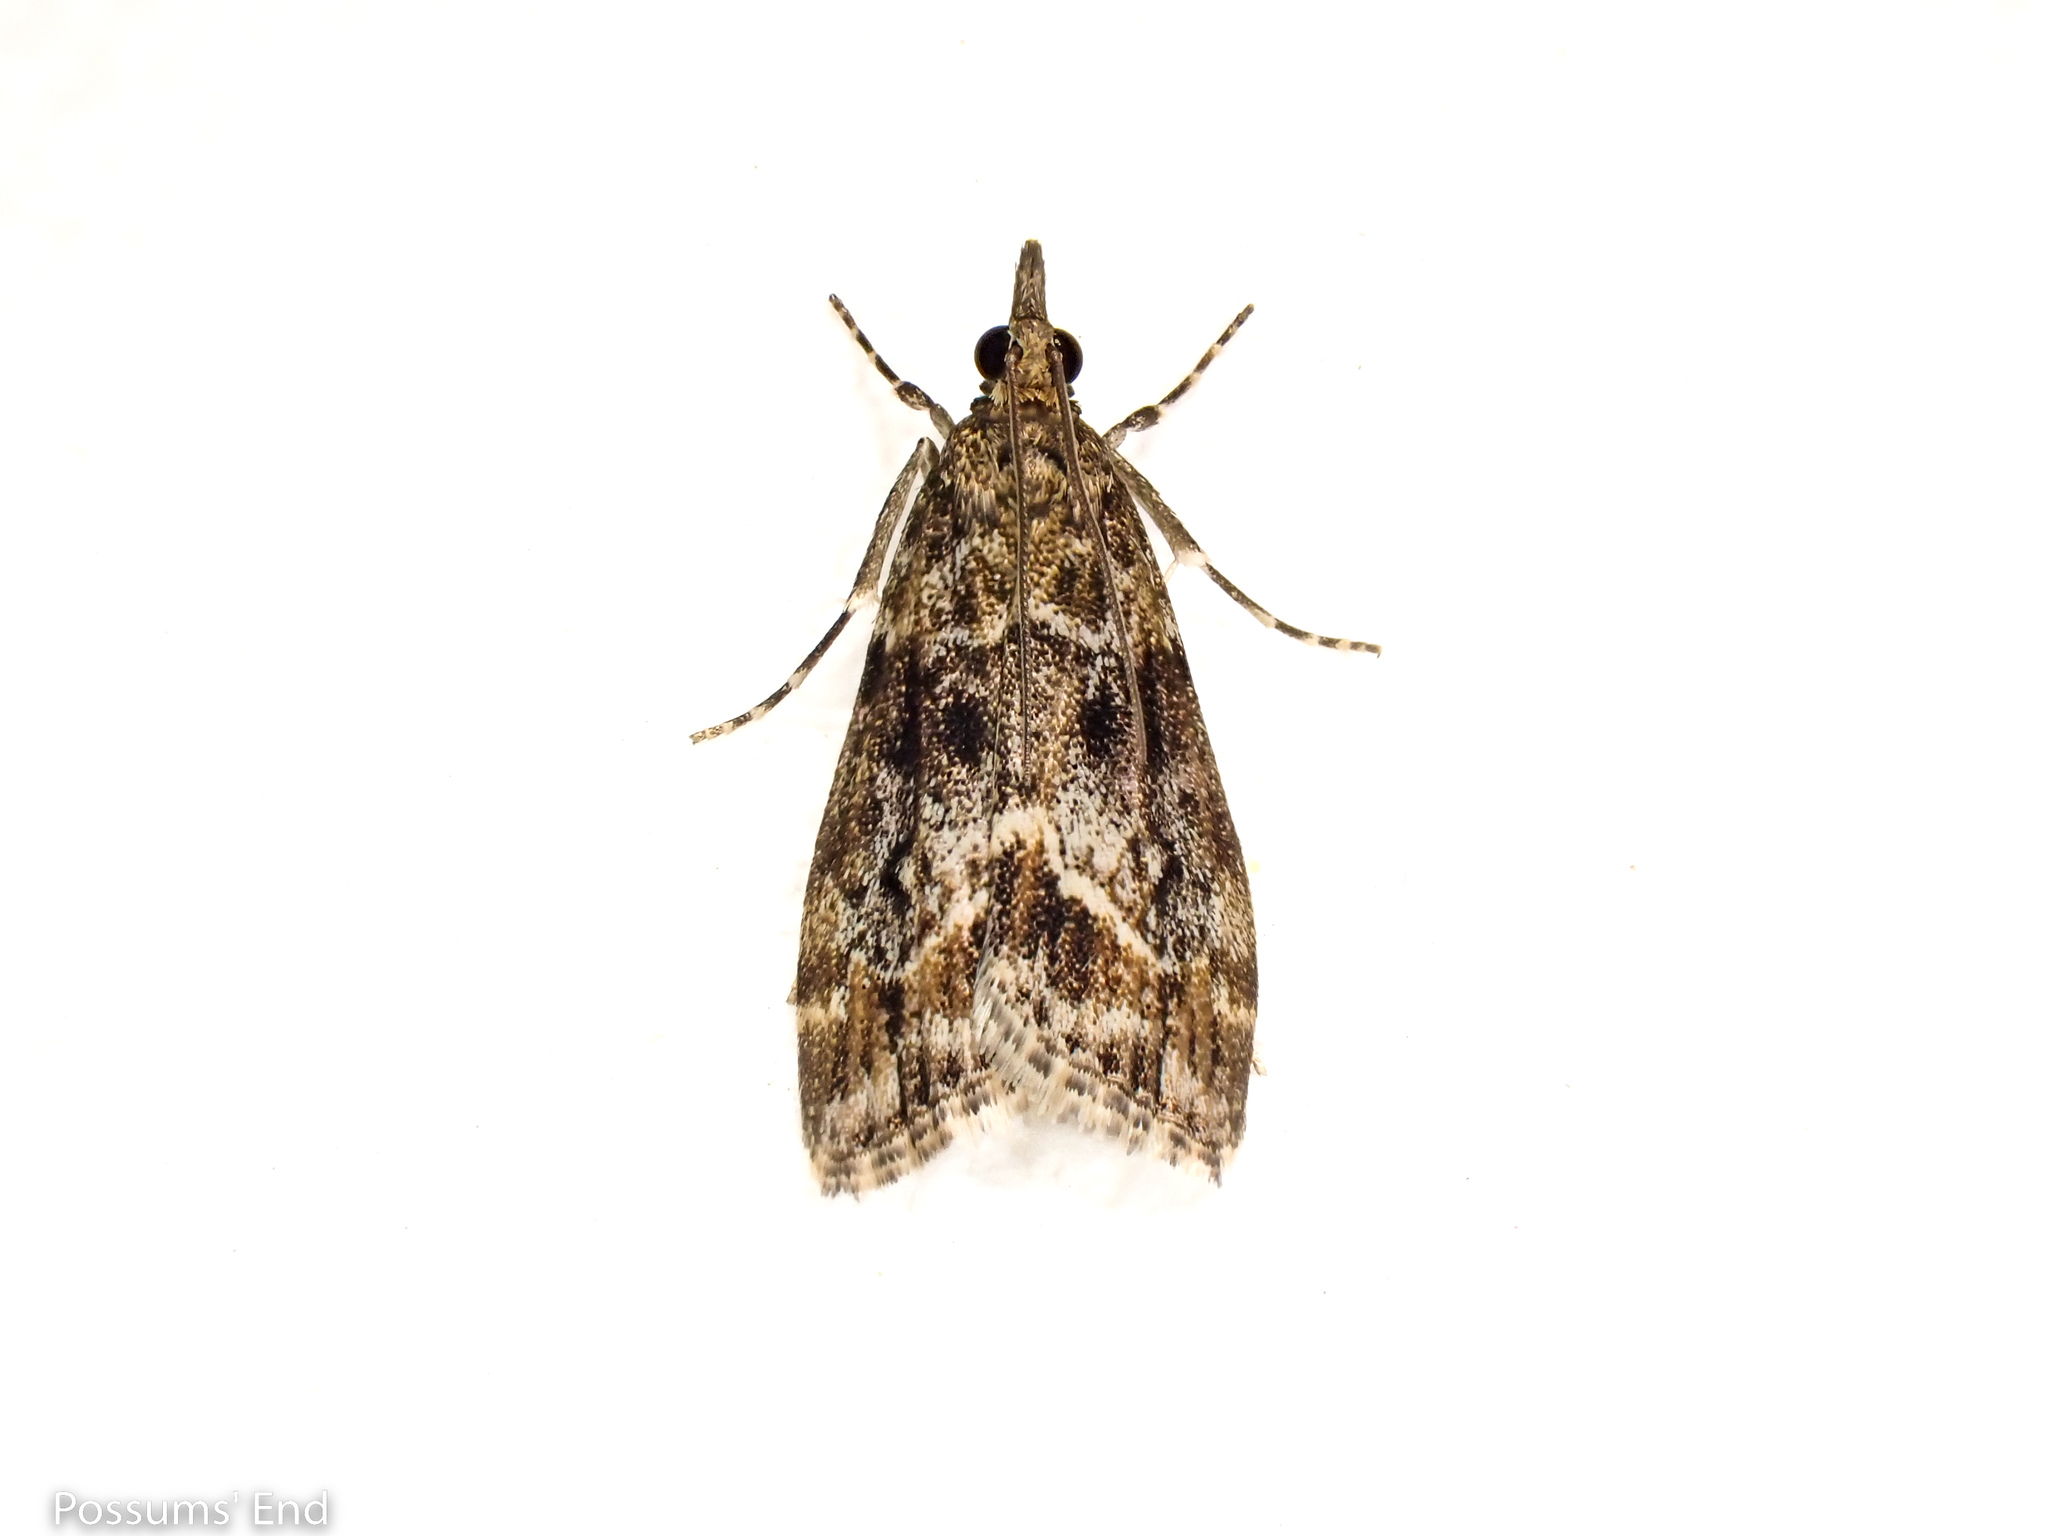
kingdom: Animalia
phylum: Arthropoda
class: Insecta
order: Lepidoptera
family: Crambidae
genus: Eudonia
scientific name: Eudonia legnota
